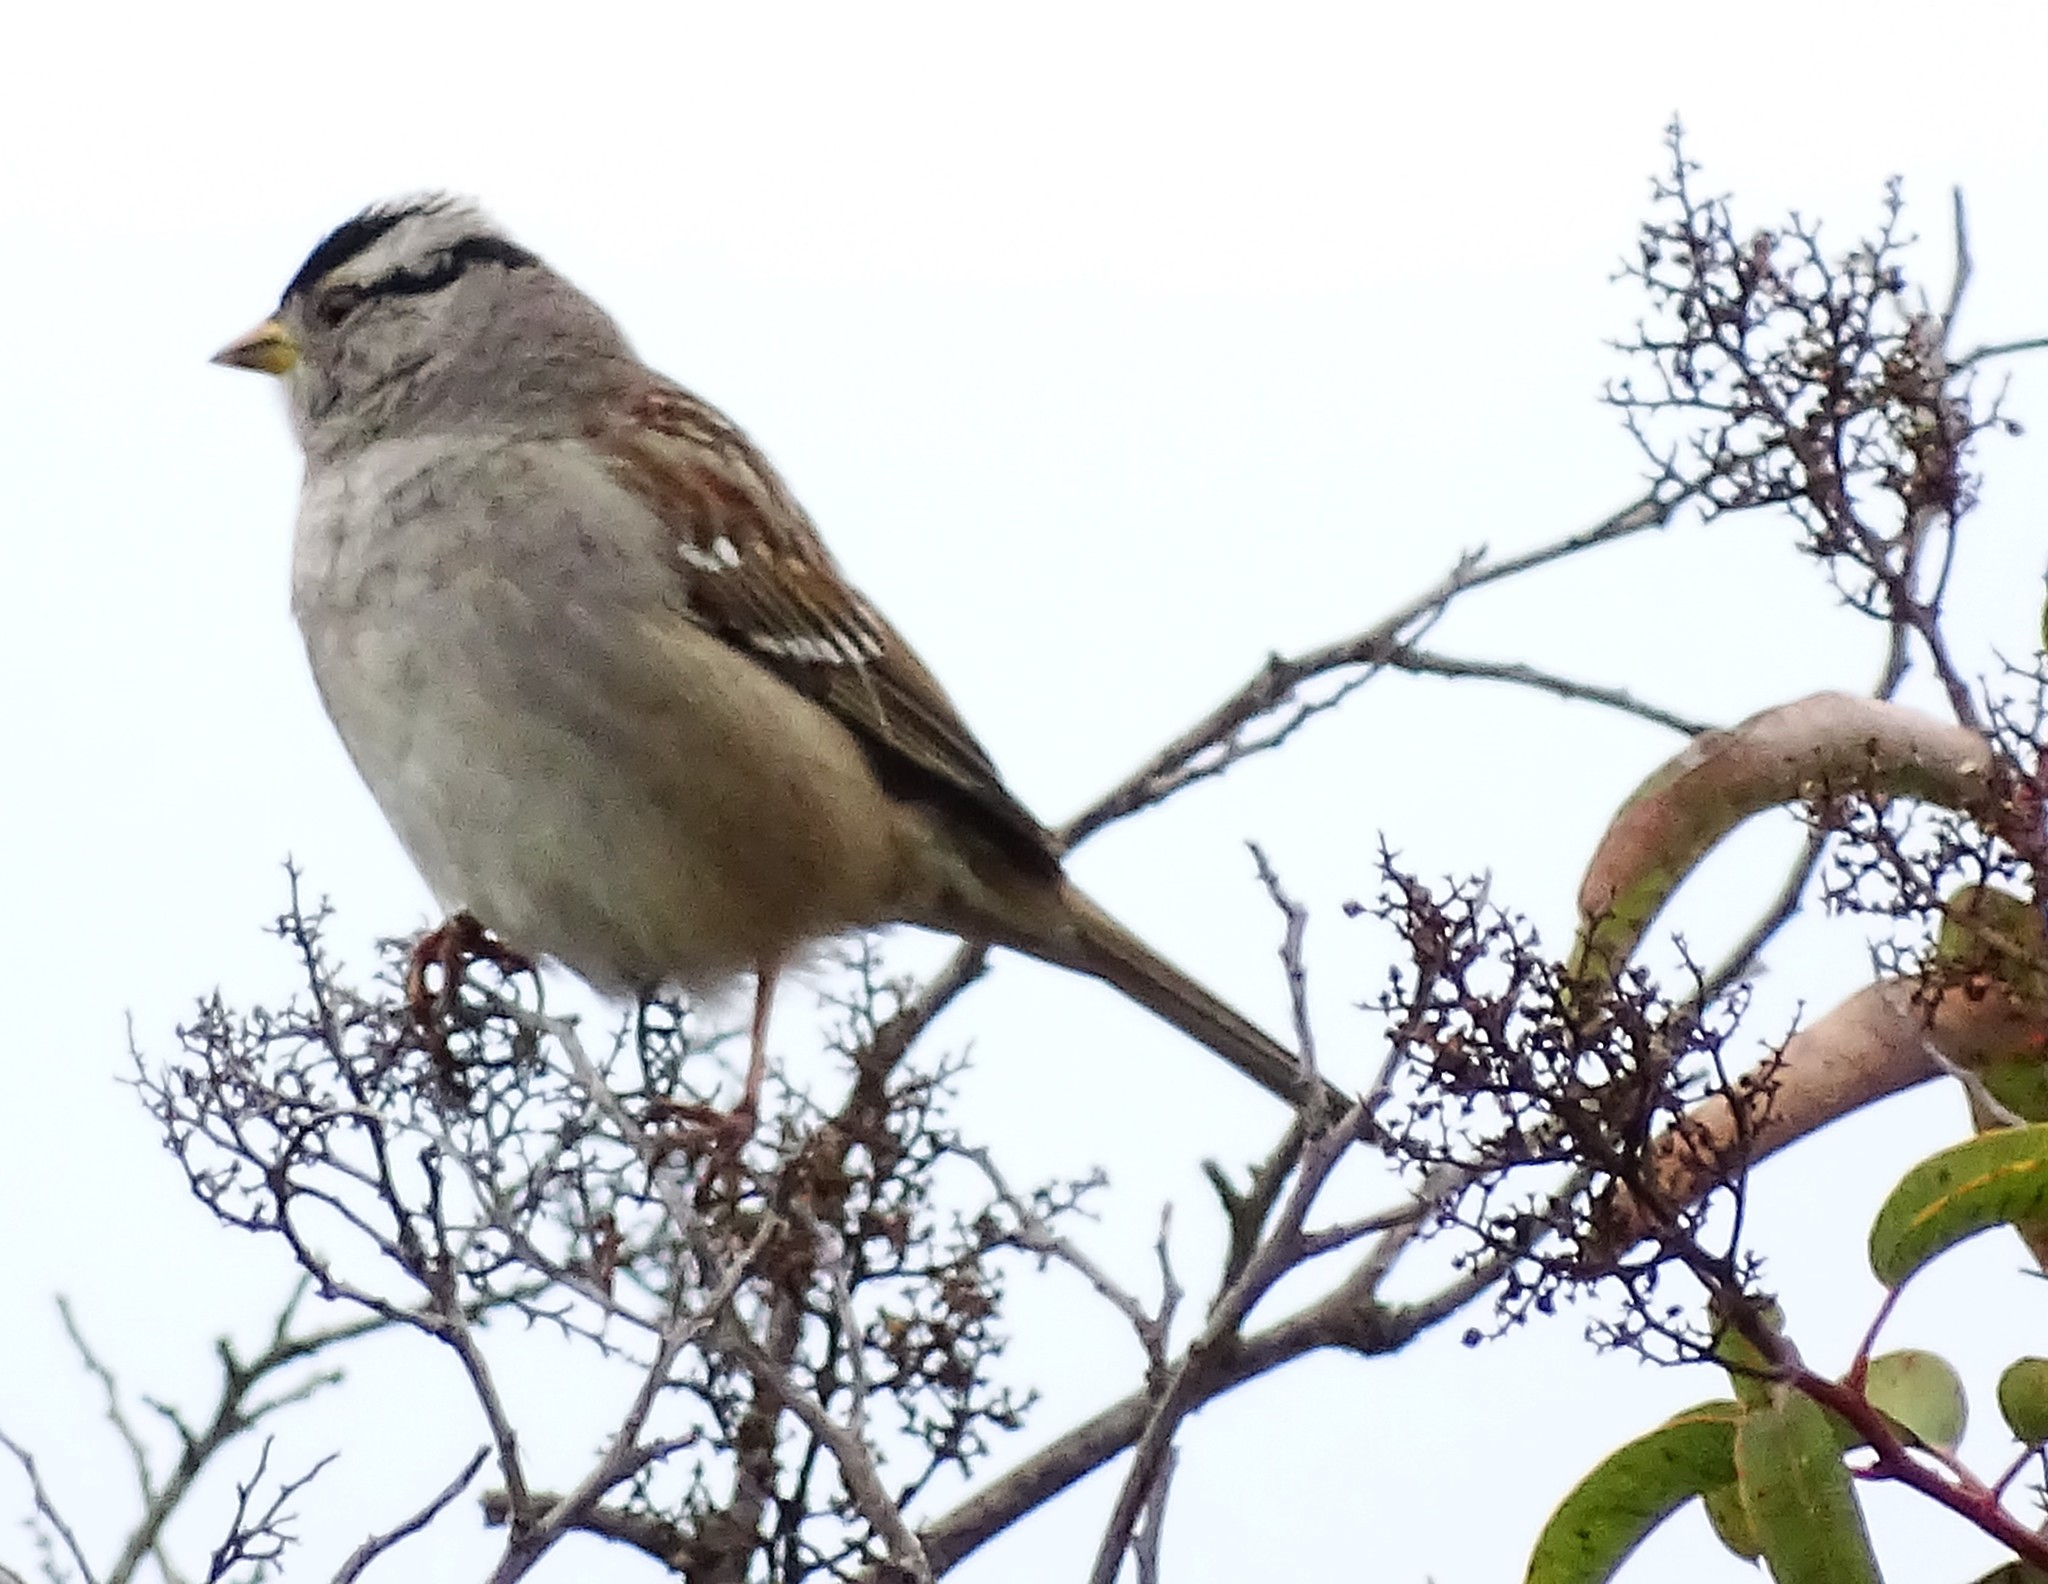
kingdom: Animalia
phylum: Chordata
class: Aves
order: Passeriformes
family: Passerellidae
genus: Zonotrichia
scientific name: Zonotrichia leucophrys
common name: White-crowned sparrow
